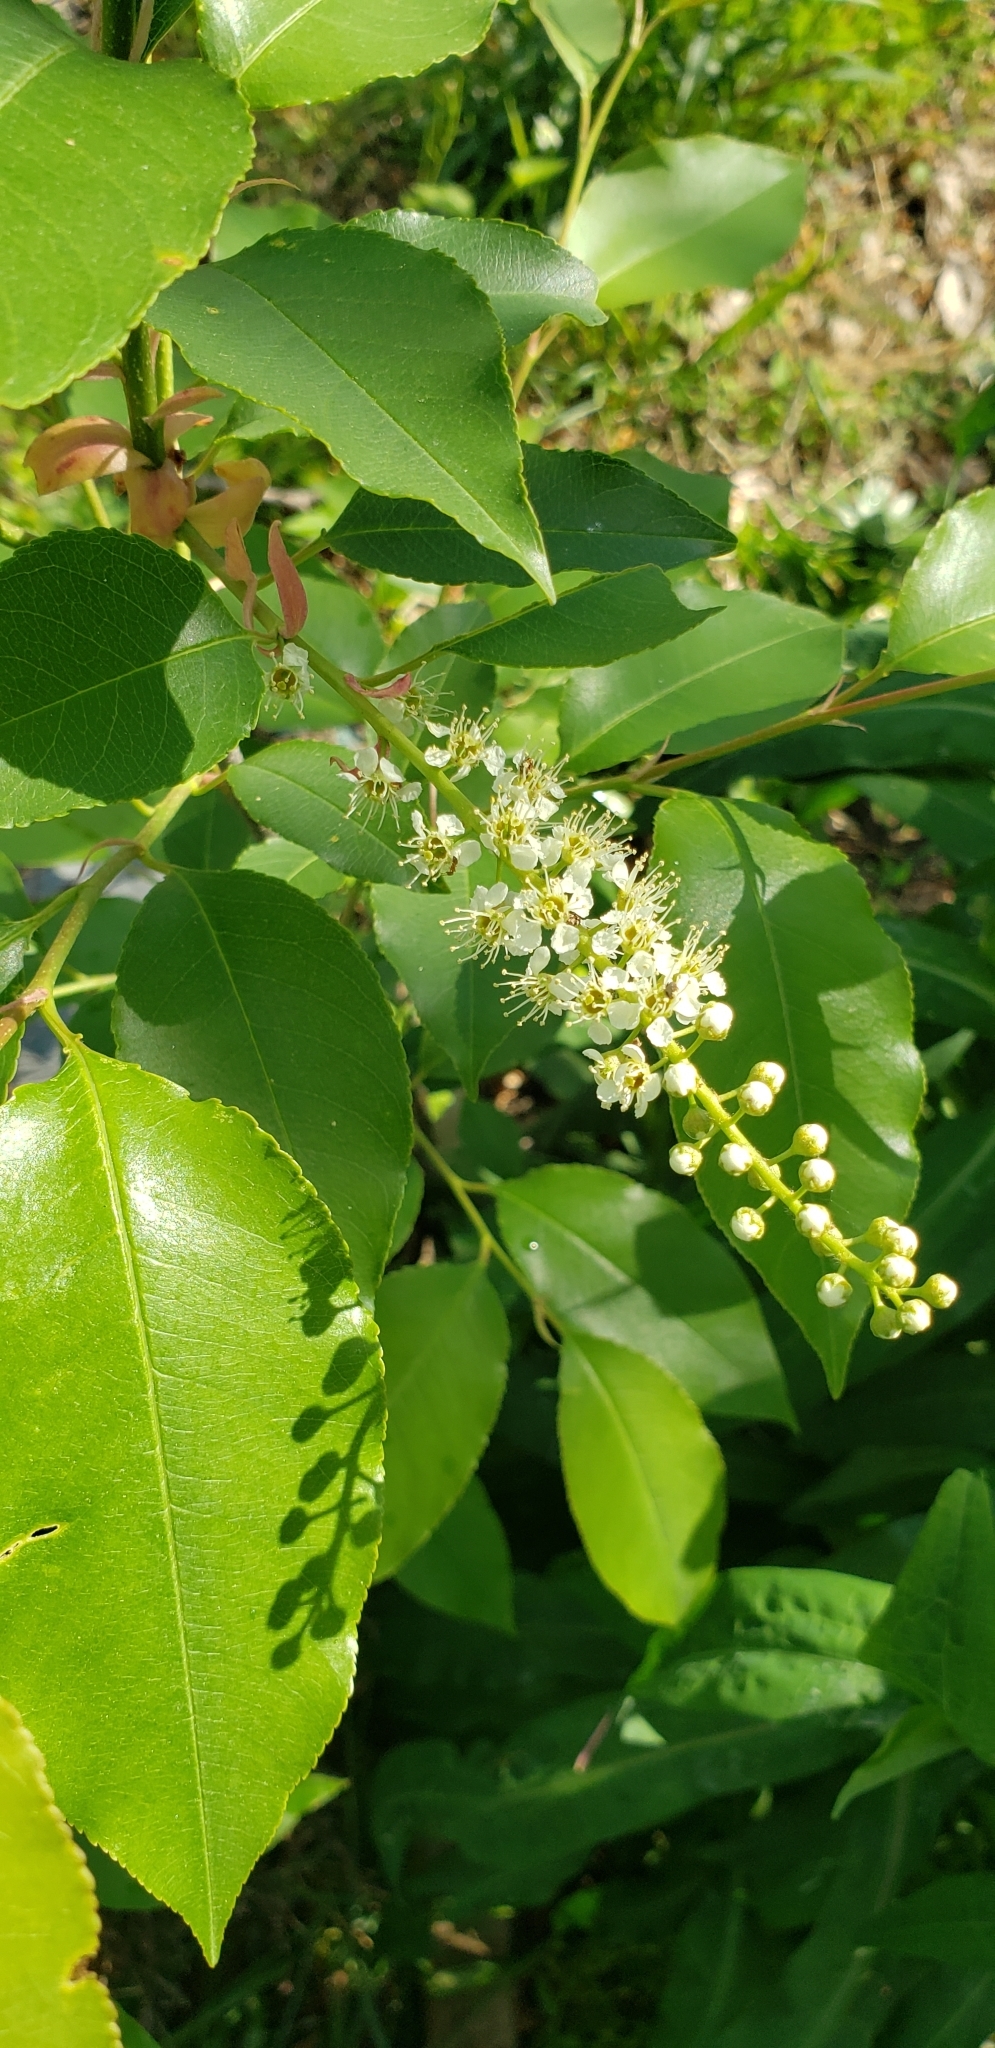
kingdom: Plantae
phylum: Tracheophyta
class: Magnoliopsida
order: Rosales
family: Rosaceae
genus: Prunus
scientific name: Prunus serotina
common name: Black cherry
